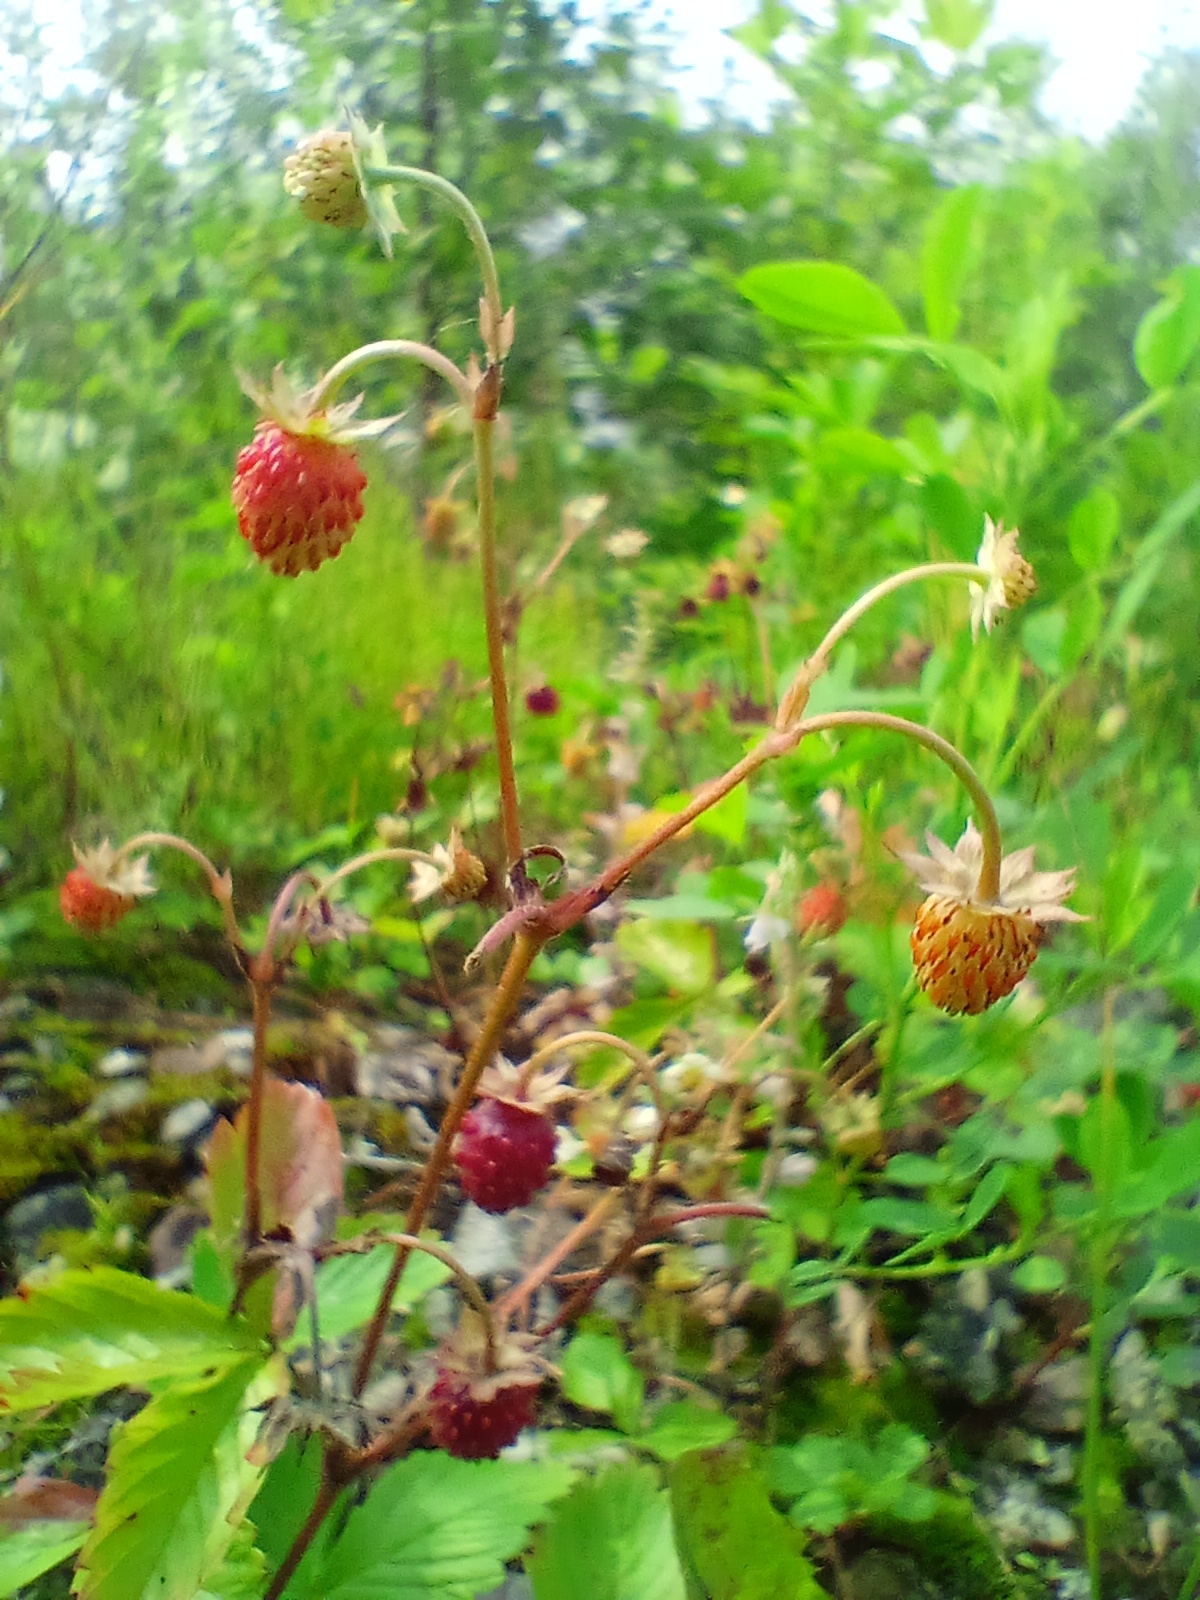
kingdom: Plantae
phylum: Tracheophyta
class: Magnoliopsida
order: Rosales
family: Rosaceae
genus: Fragaria
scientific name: Fragaria vesca
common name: Wild strawberry
